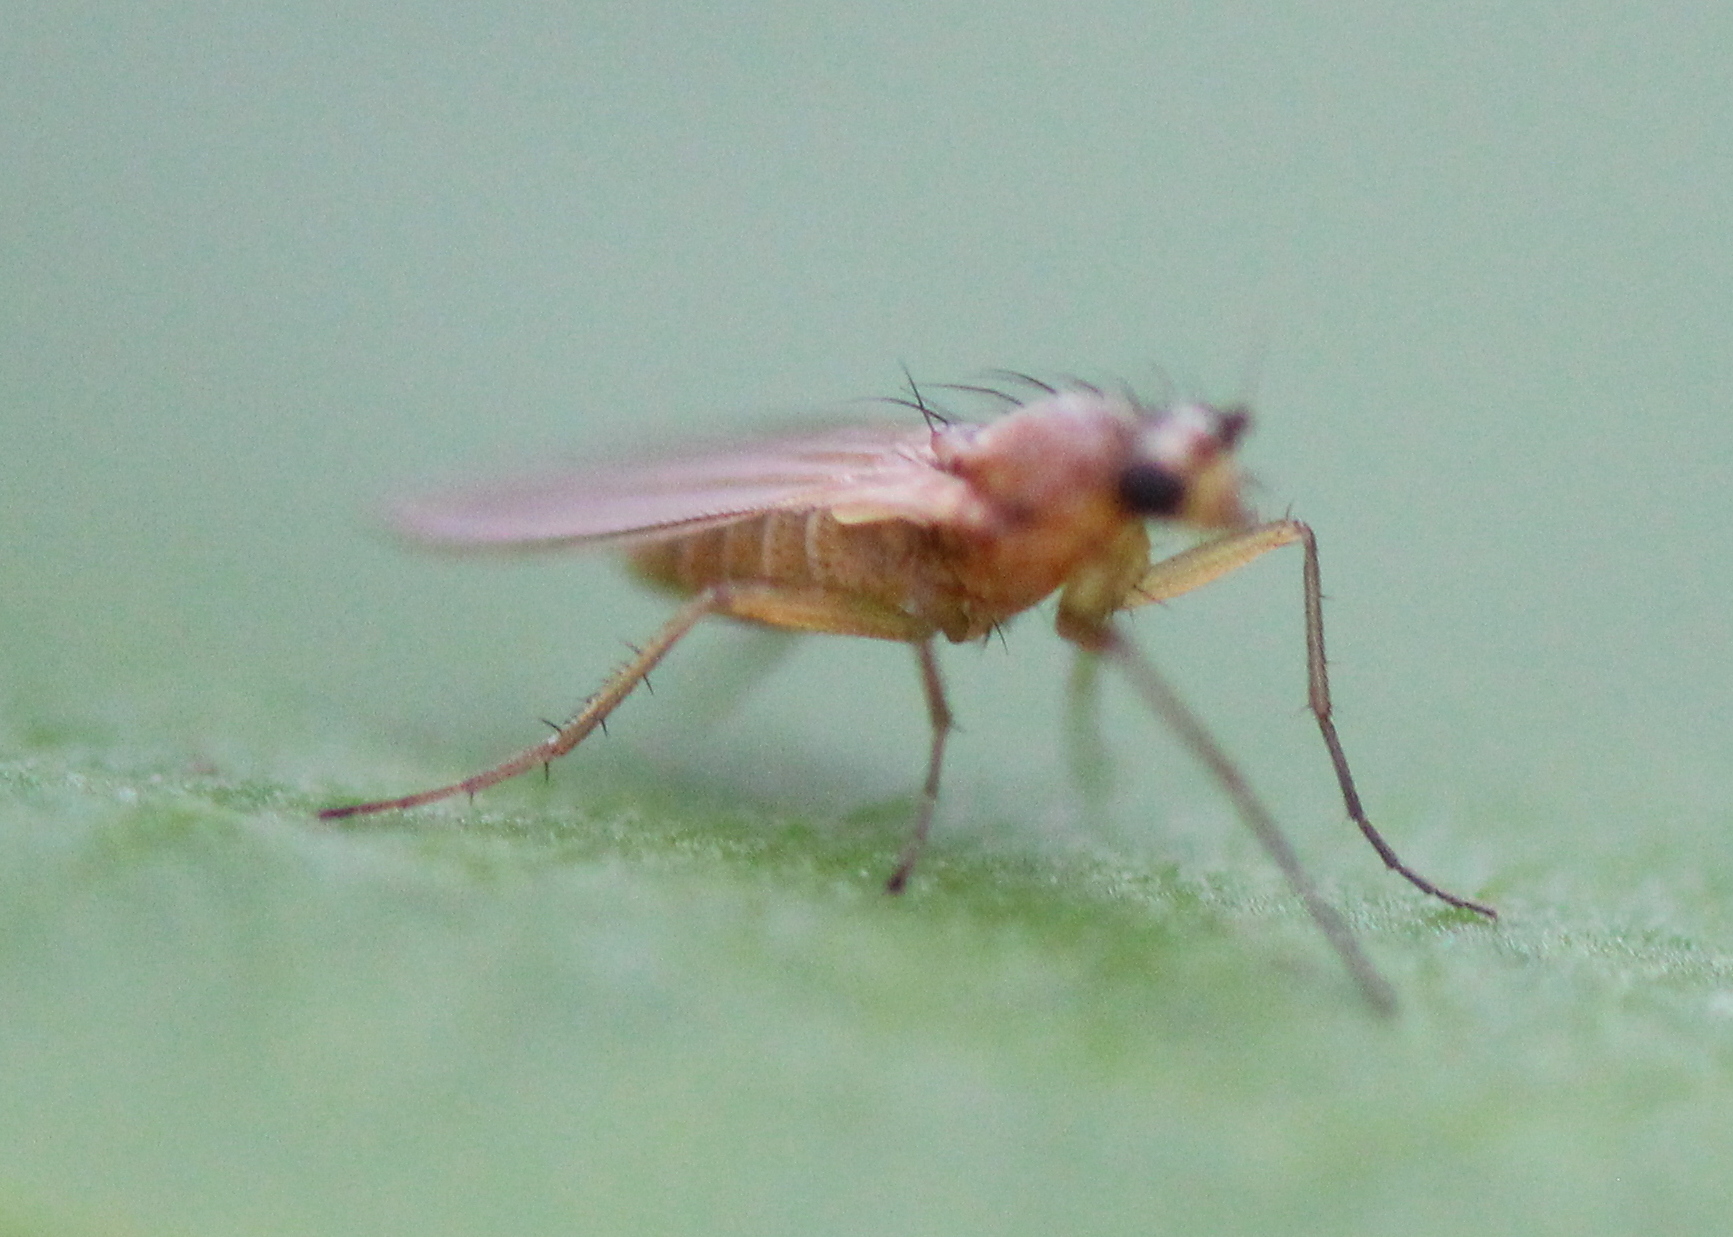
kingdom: Animalia
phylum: Arthropoda
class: Insecta
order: Diptera
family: Lonchopteridae
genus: Lonchoptera
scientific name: Lonchoptera bifurcata
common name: Spear-winged fly
